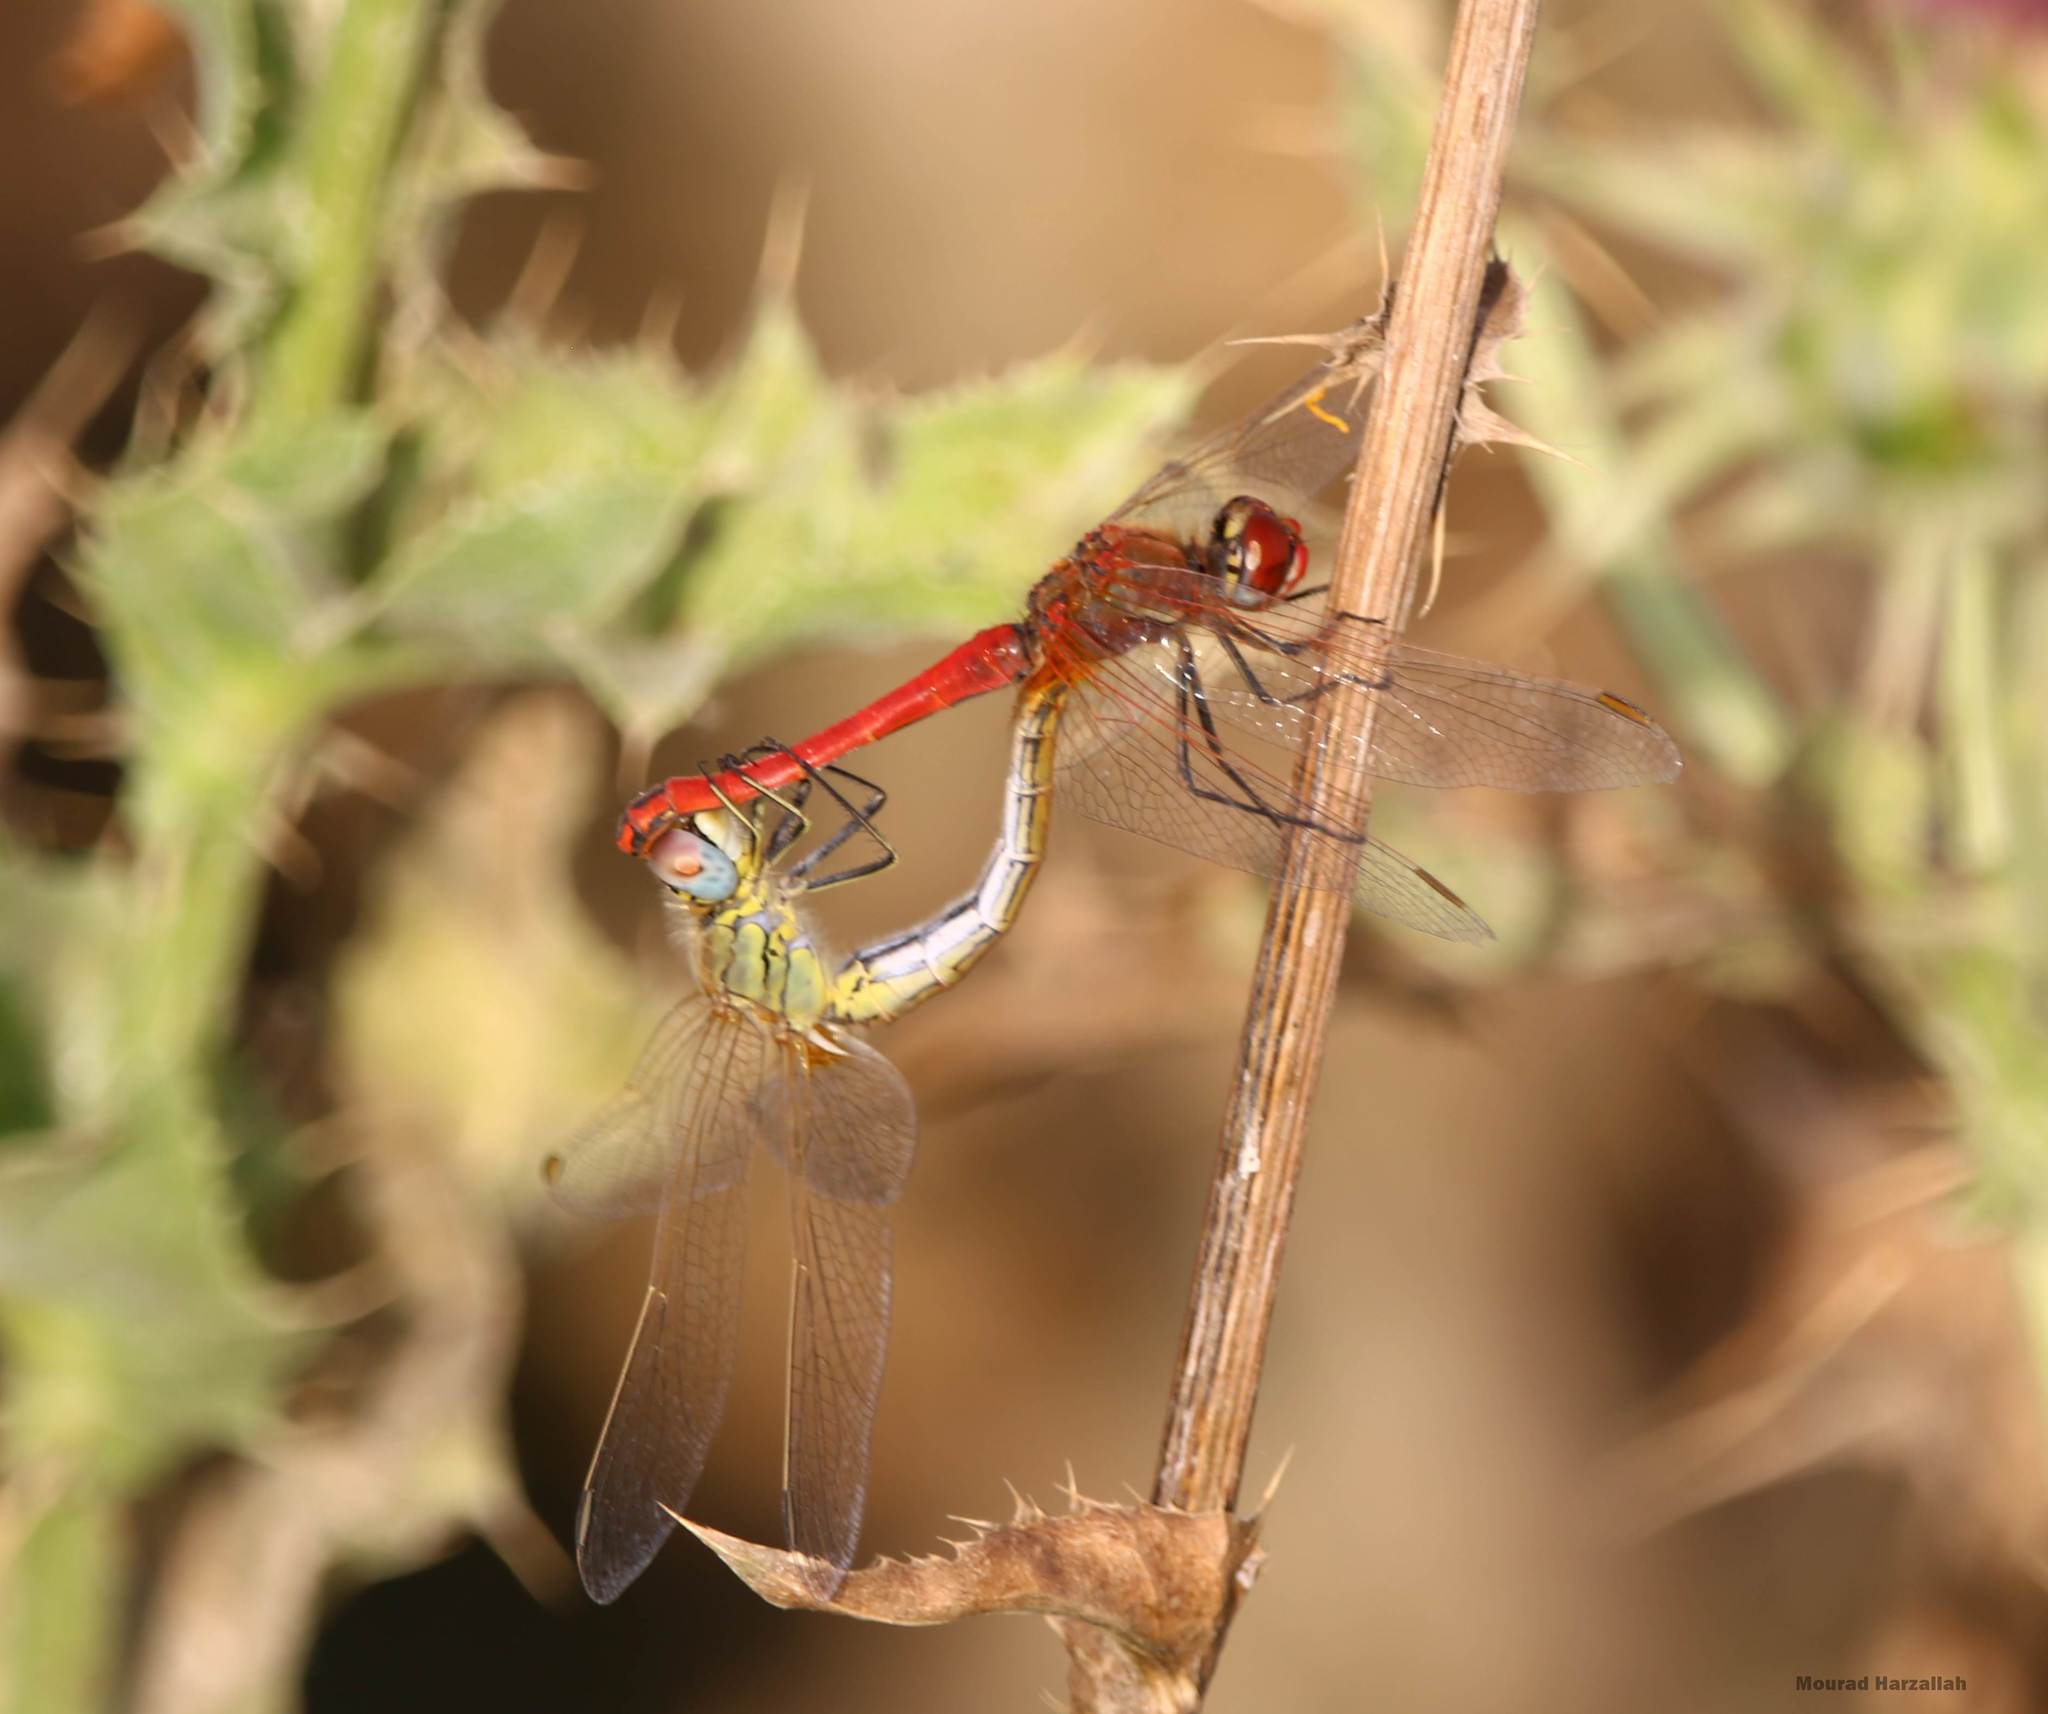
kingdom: Animalia
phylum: Arthropoda
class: Insecta
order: Odonata
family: Libellulidae
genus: Sympetrum
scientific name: Sympetrum fonscolombii
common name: Red-veined darter
